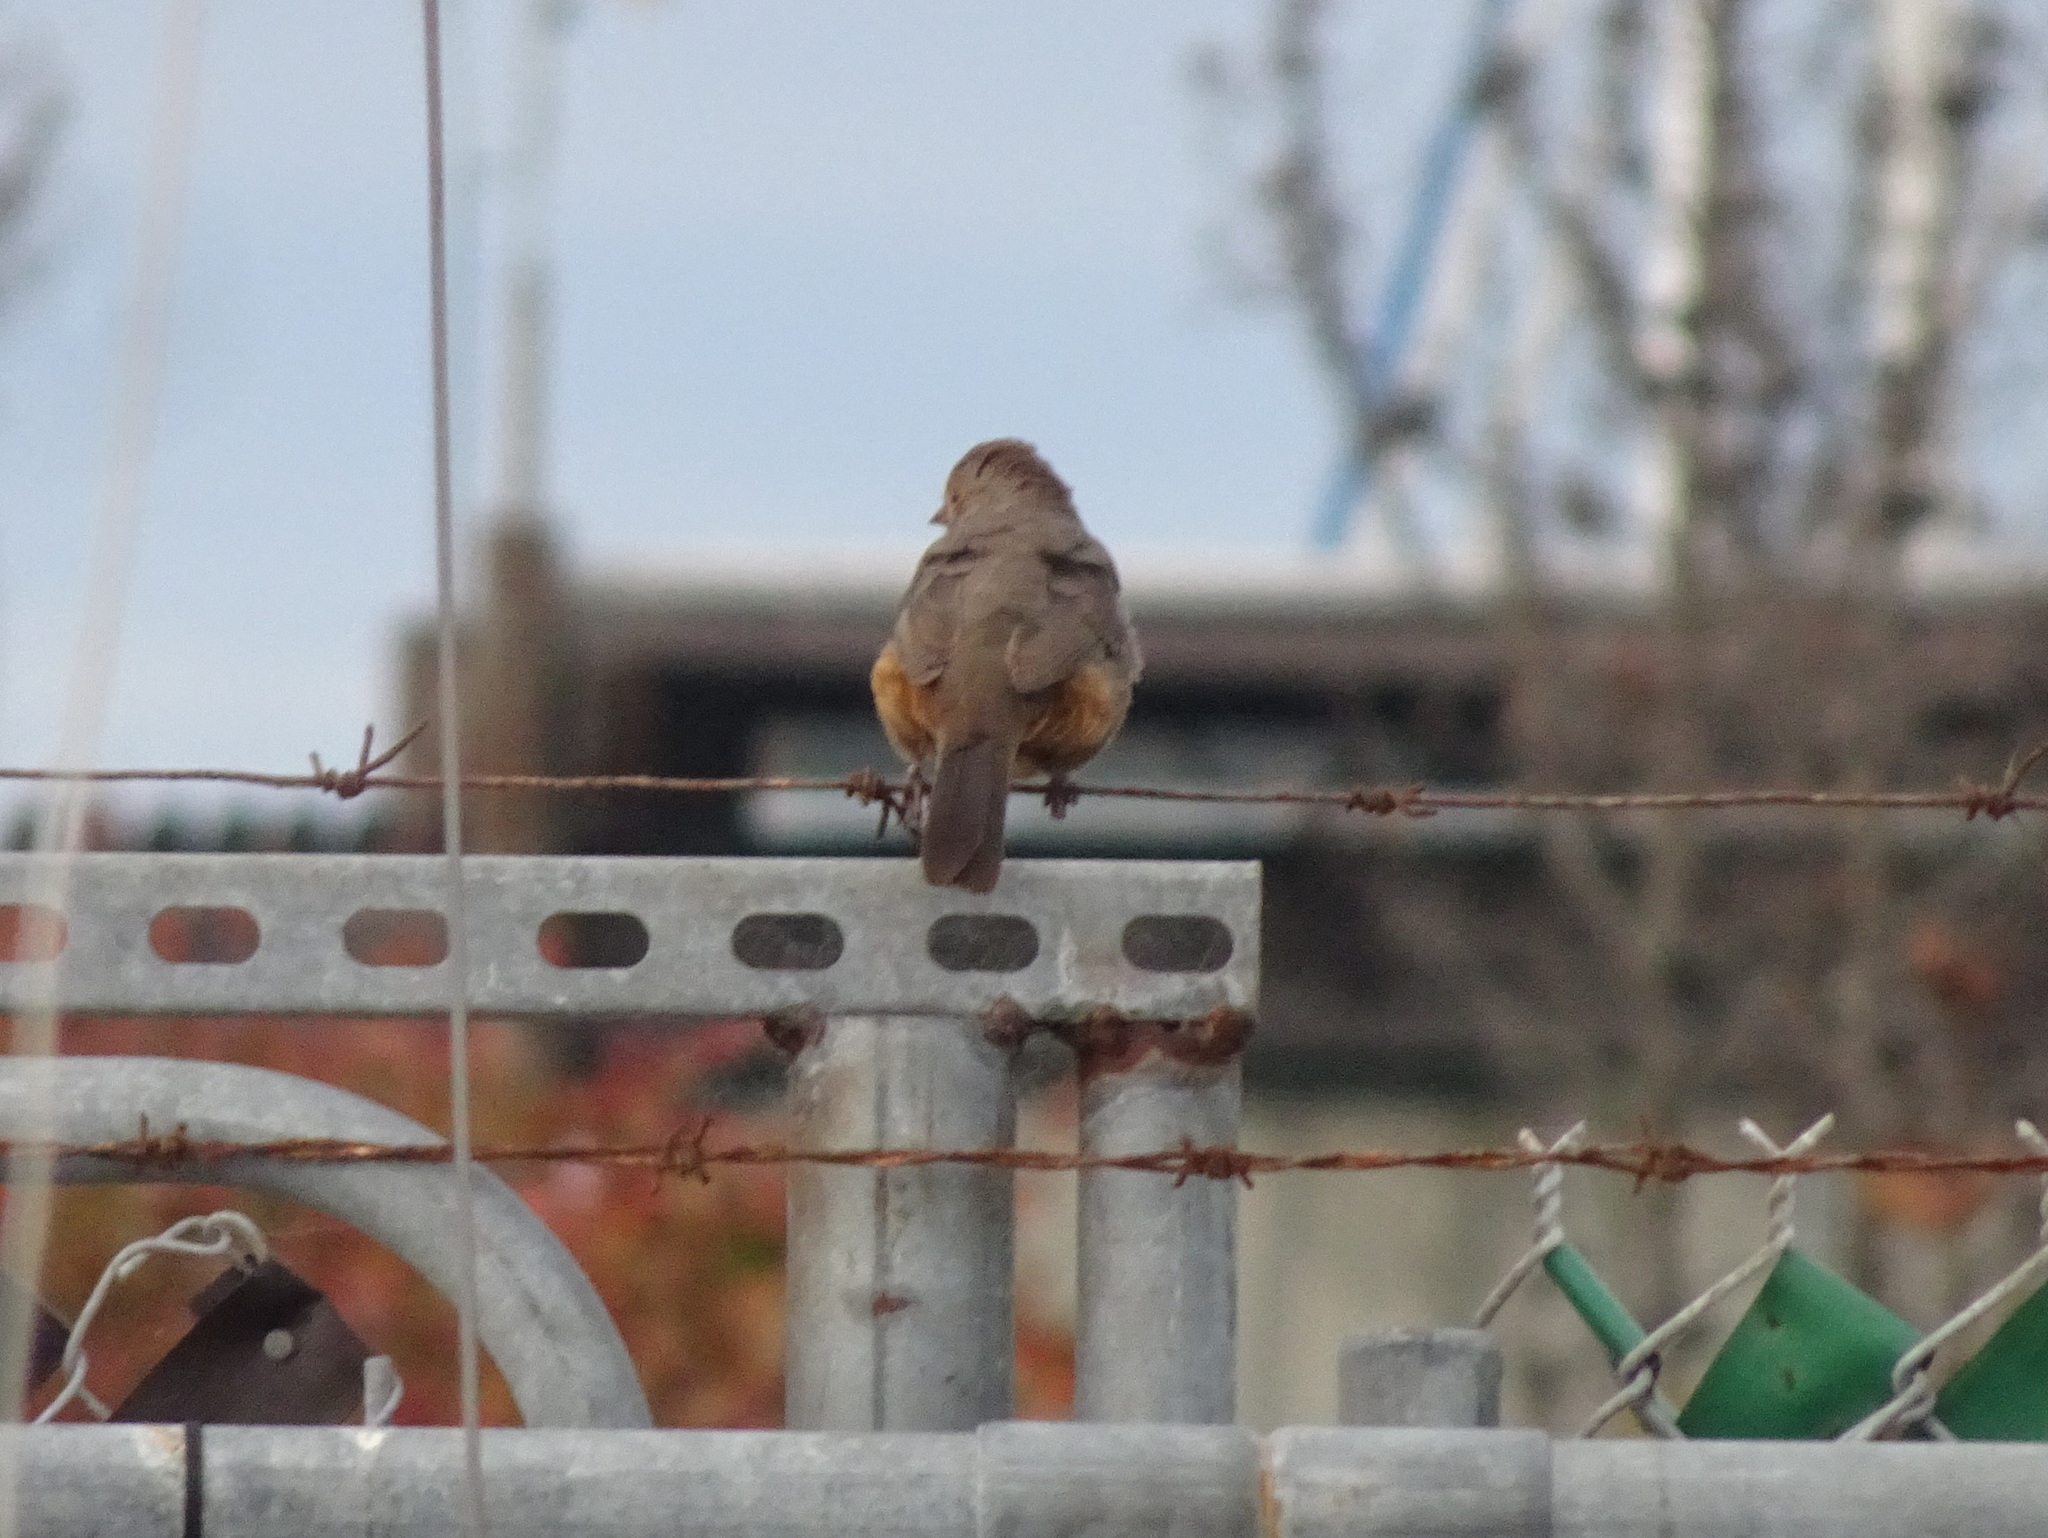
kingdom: Animalia
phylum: Chordata
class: Aves
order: Passeriformes
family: Passerellidae
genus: Melozone
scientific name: Melozone crissalis
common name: California towhee
